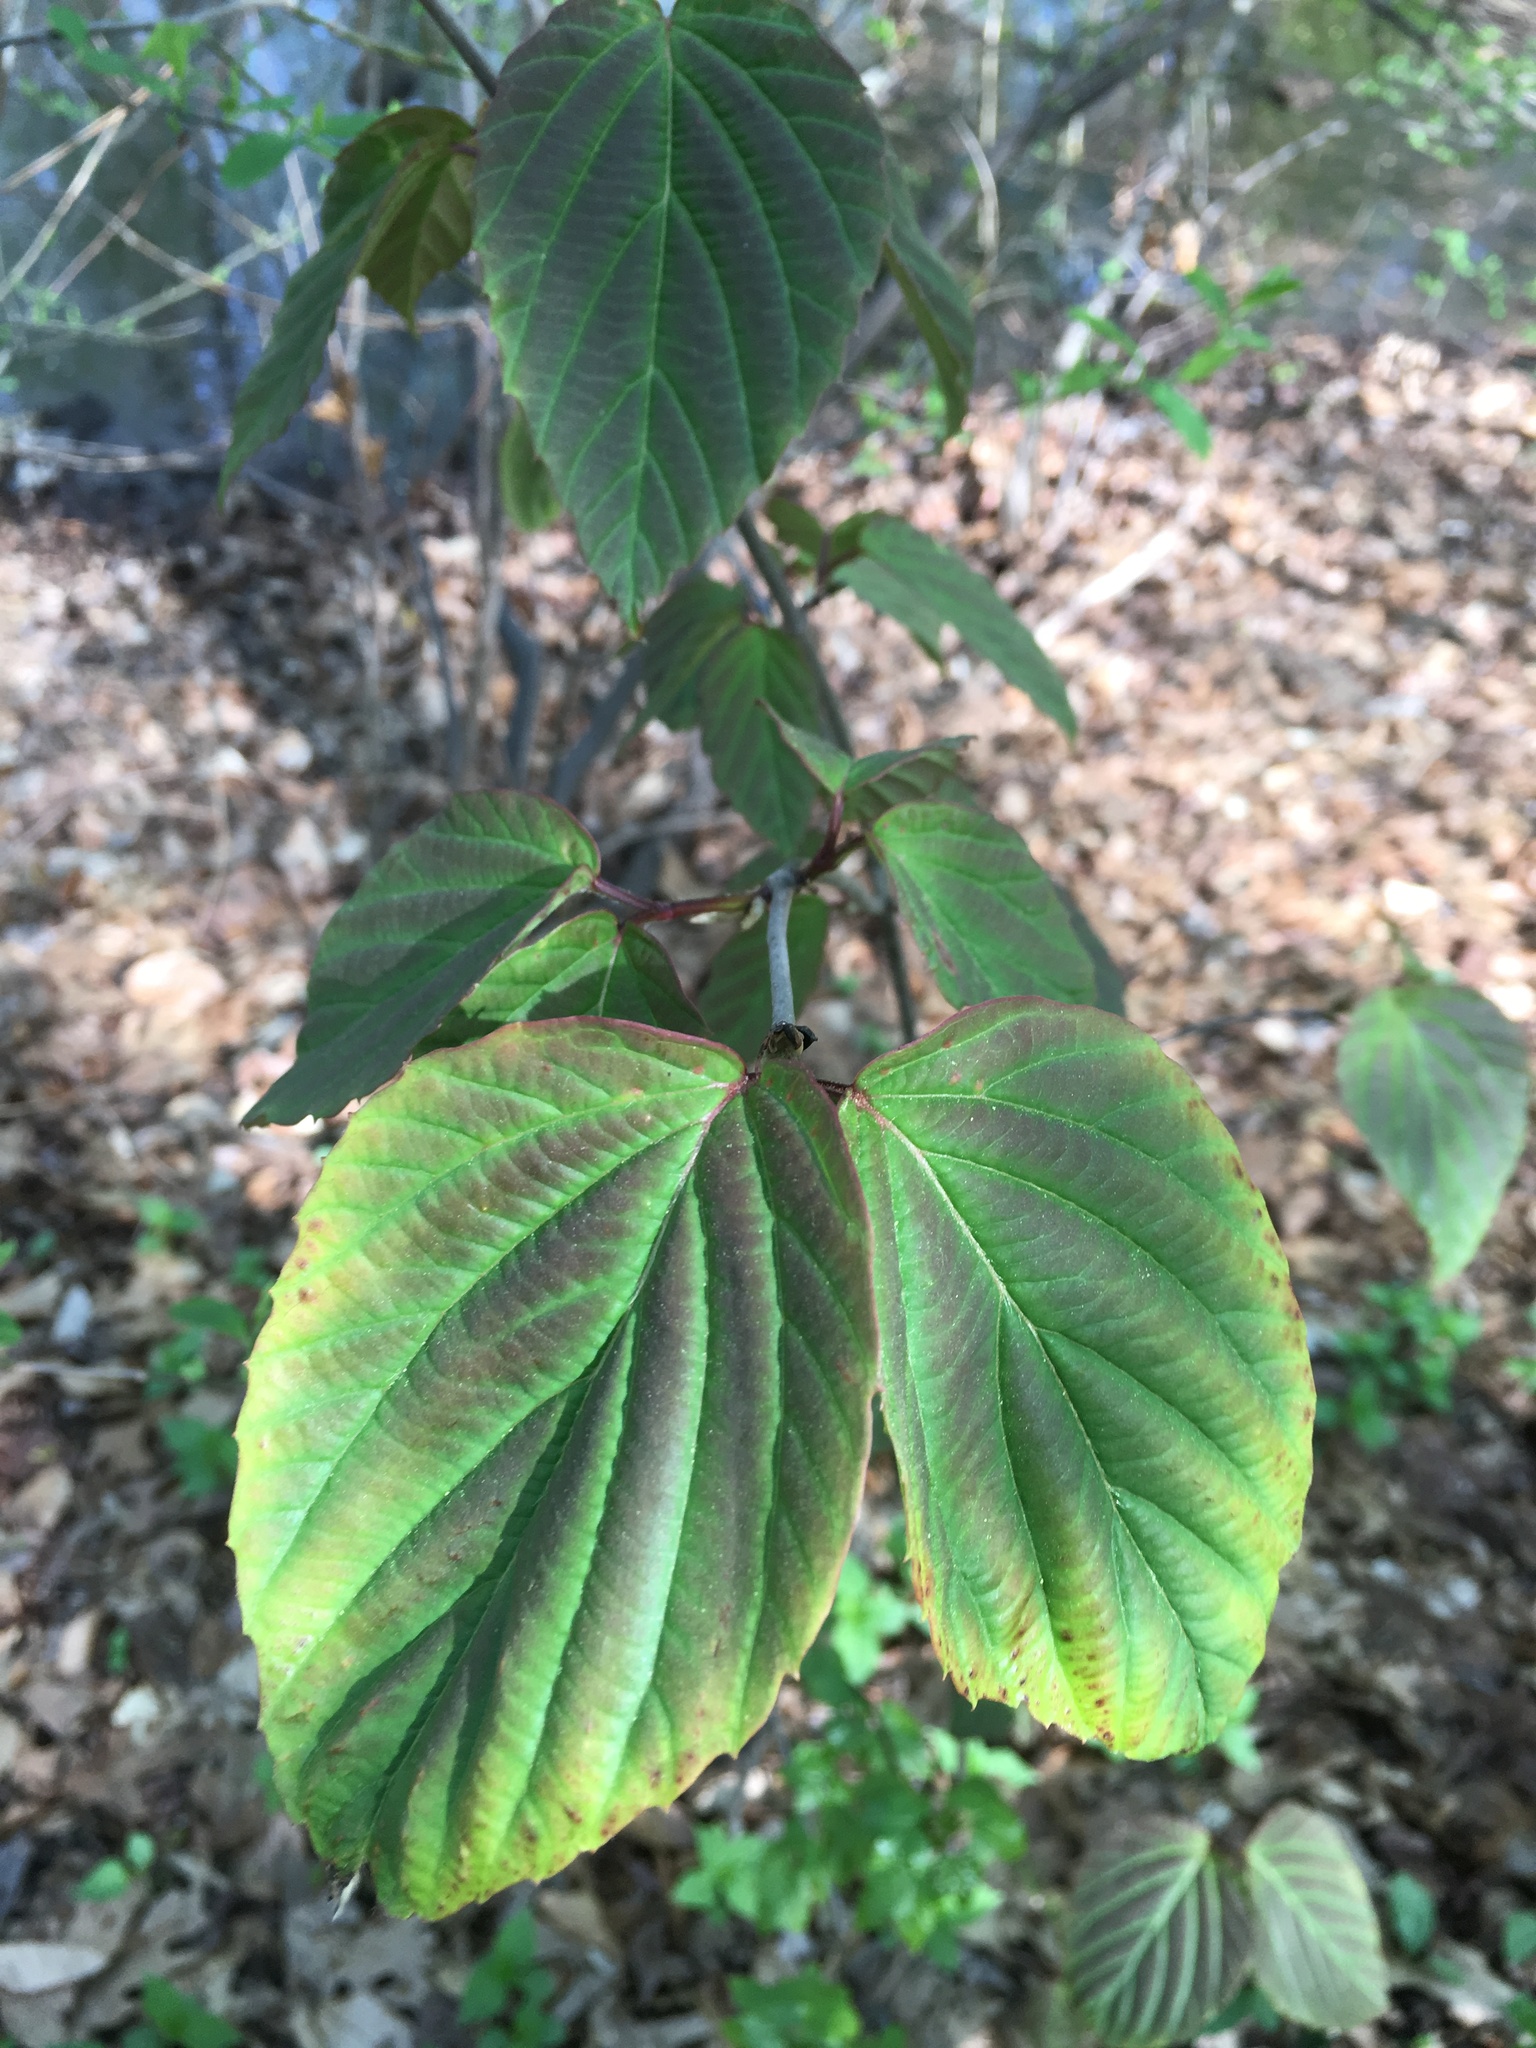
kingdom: Plantae
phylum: Tracheophyta
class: Magnoliopsida
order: Dipsacales
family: Viburnaceae
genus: Viburnum
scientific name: Viburnum setigerum
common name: Tea viburnum
